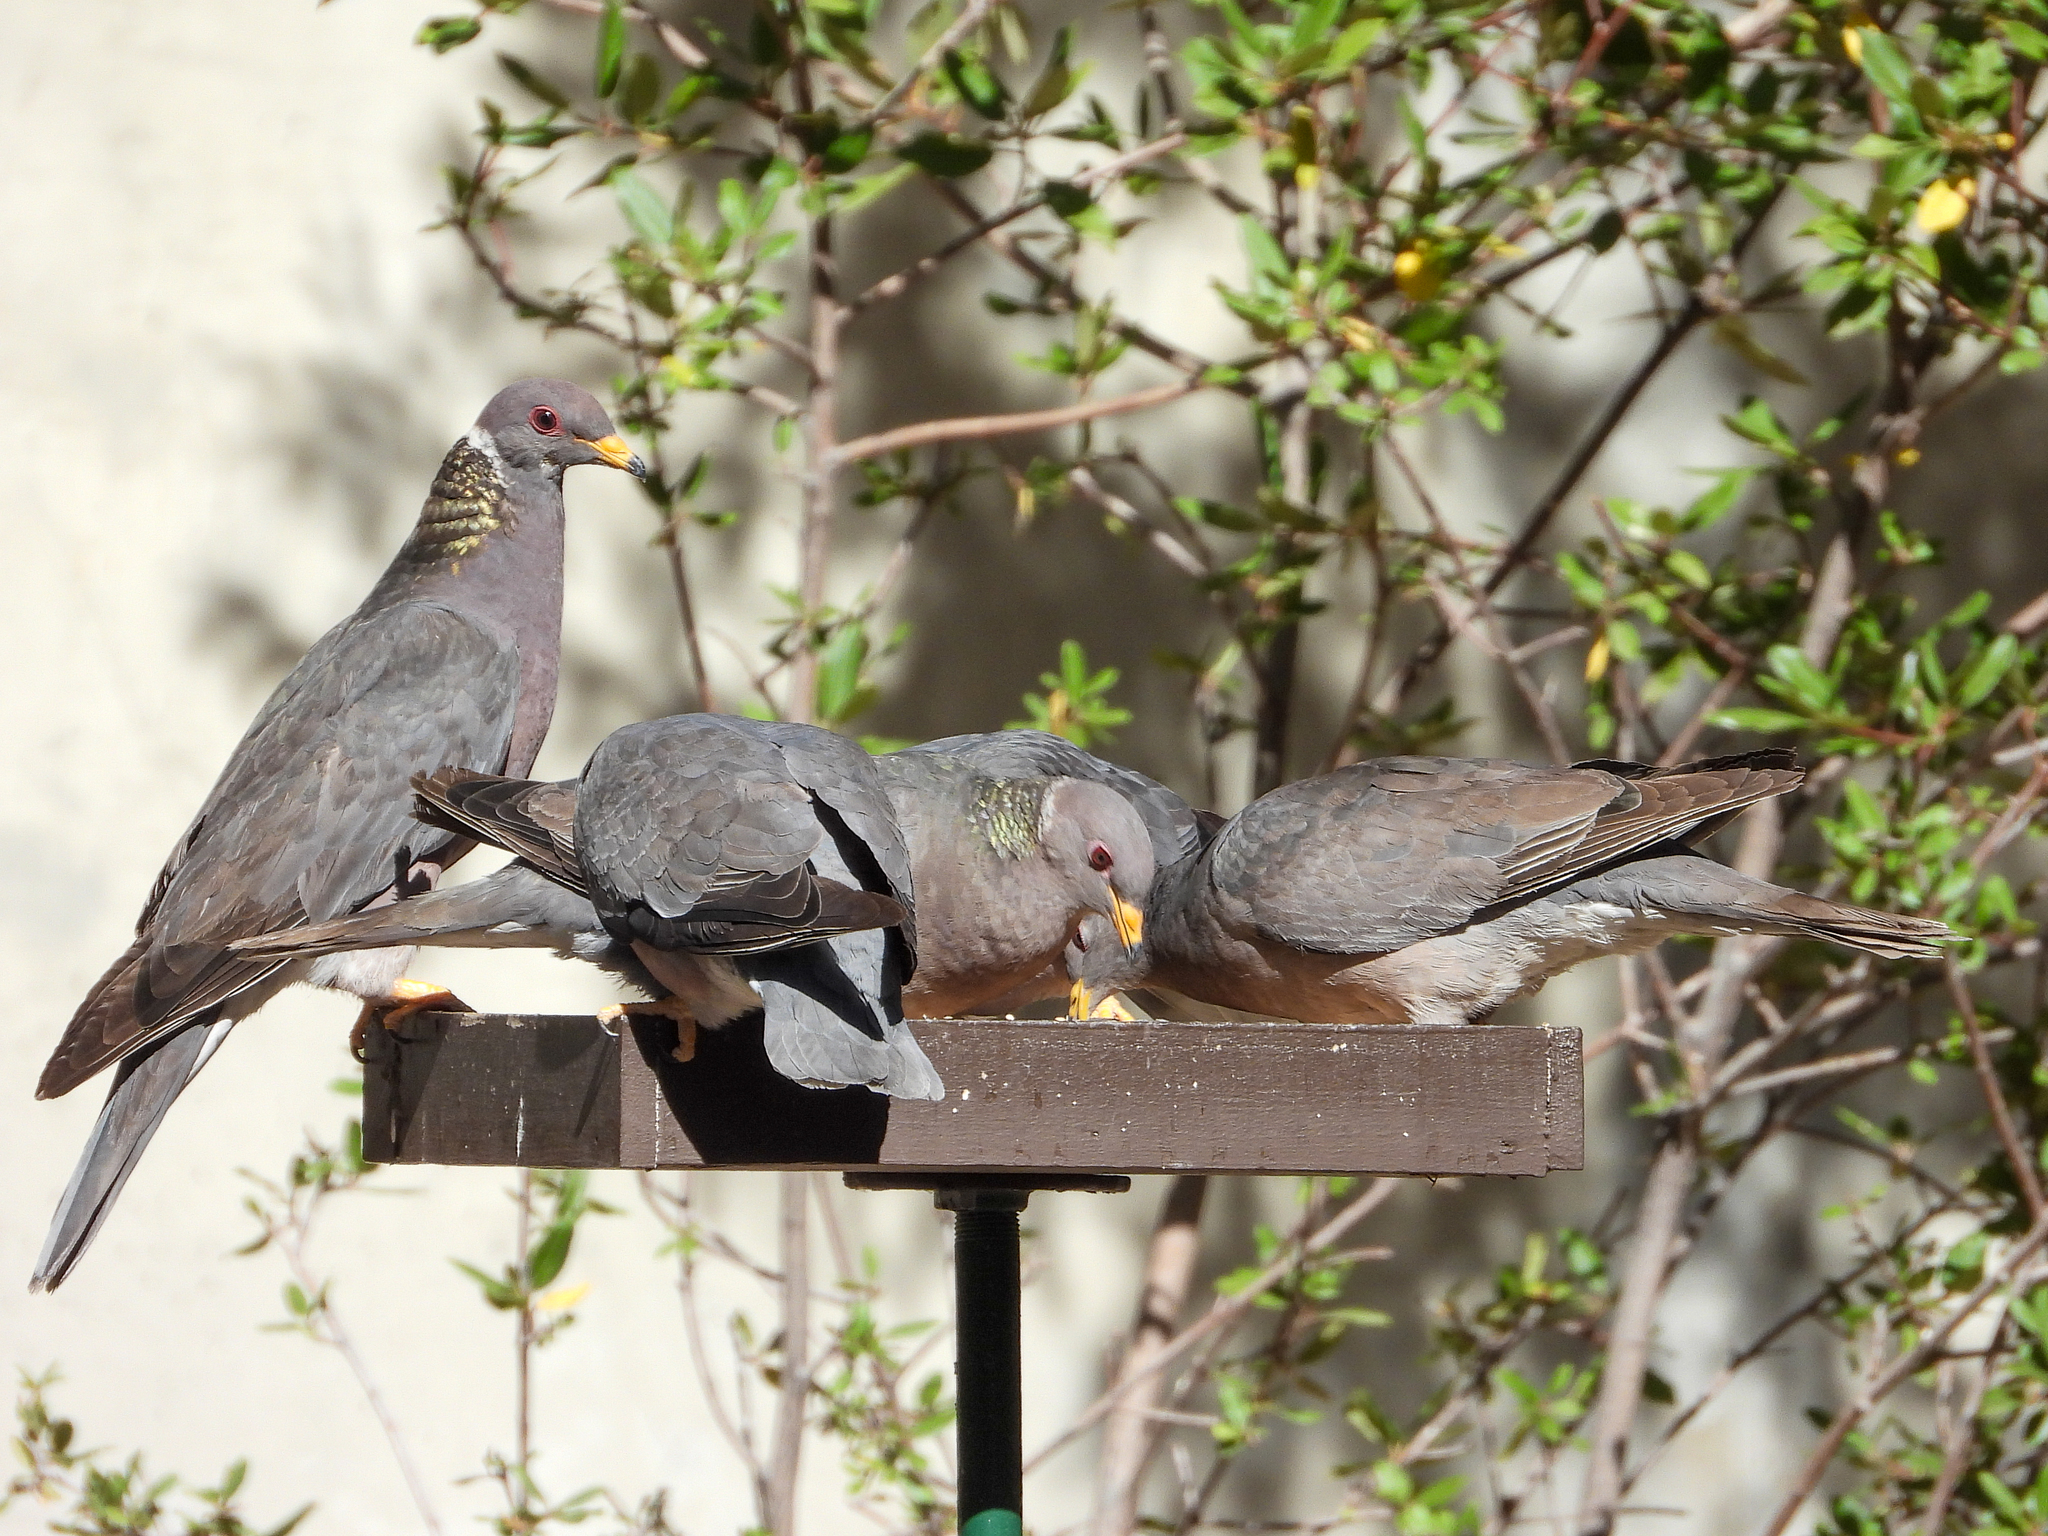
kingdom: Animalia
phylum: Chordata
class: Aves
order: Columbiformes
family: Columbidae
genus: Patagioenas
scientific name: Patagioenas fasciata
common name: Band-tailed pigeon
